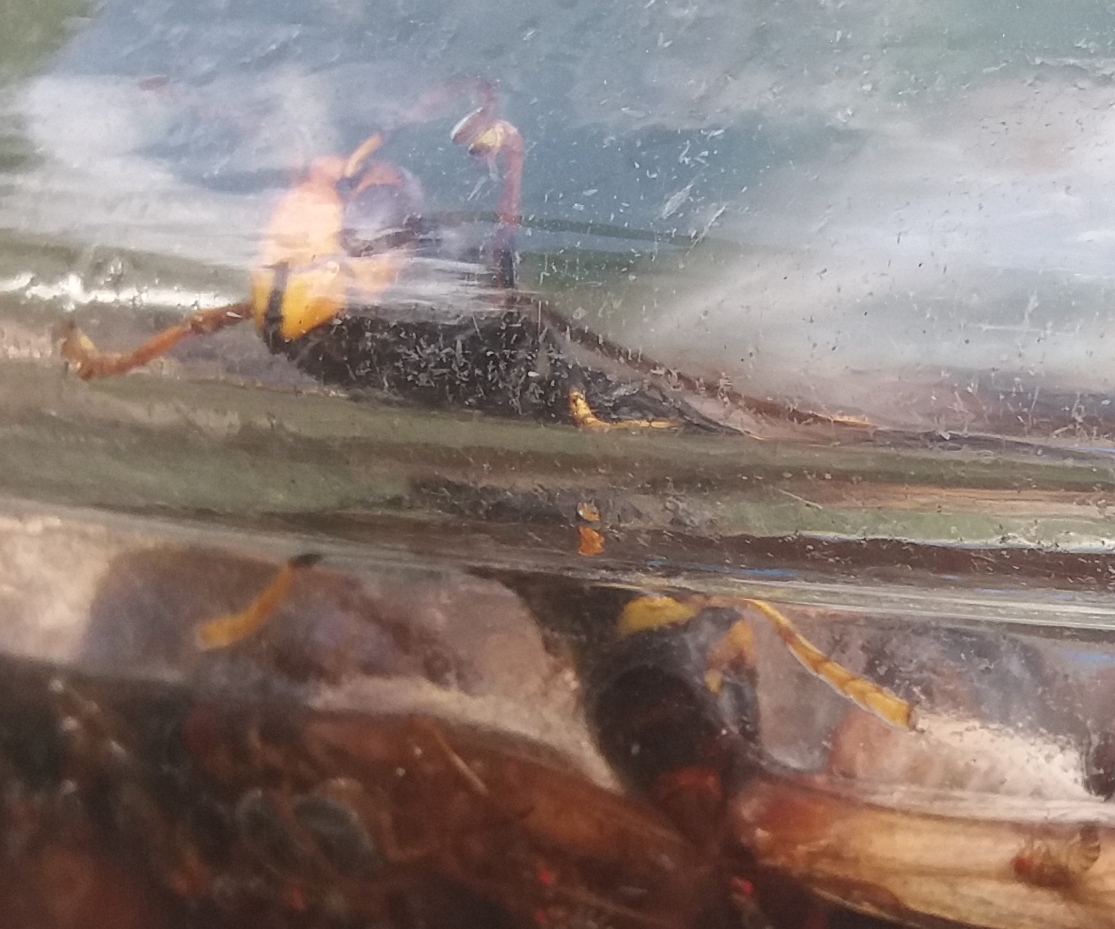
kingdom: Animalia
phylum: Arthropoda
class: Insecta
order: Hymenoptera
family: Vespidae
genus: Vespa
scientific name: Vespa velutina
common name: Asian hornet
